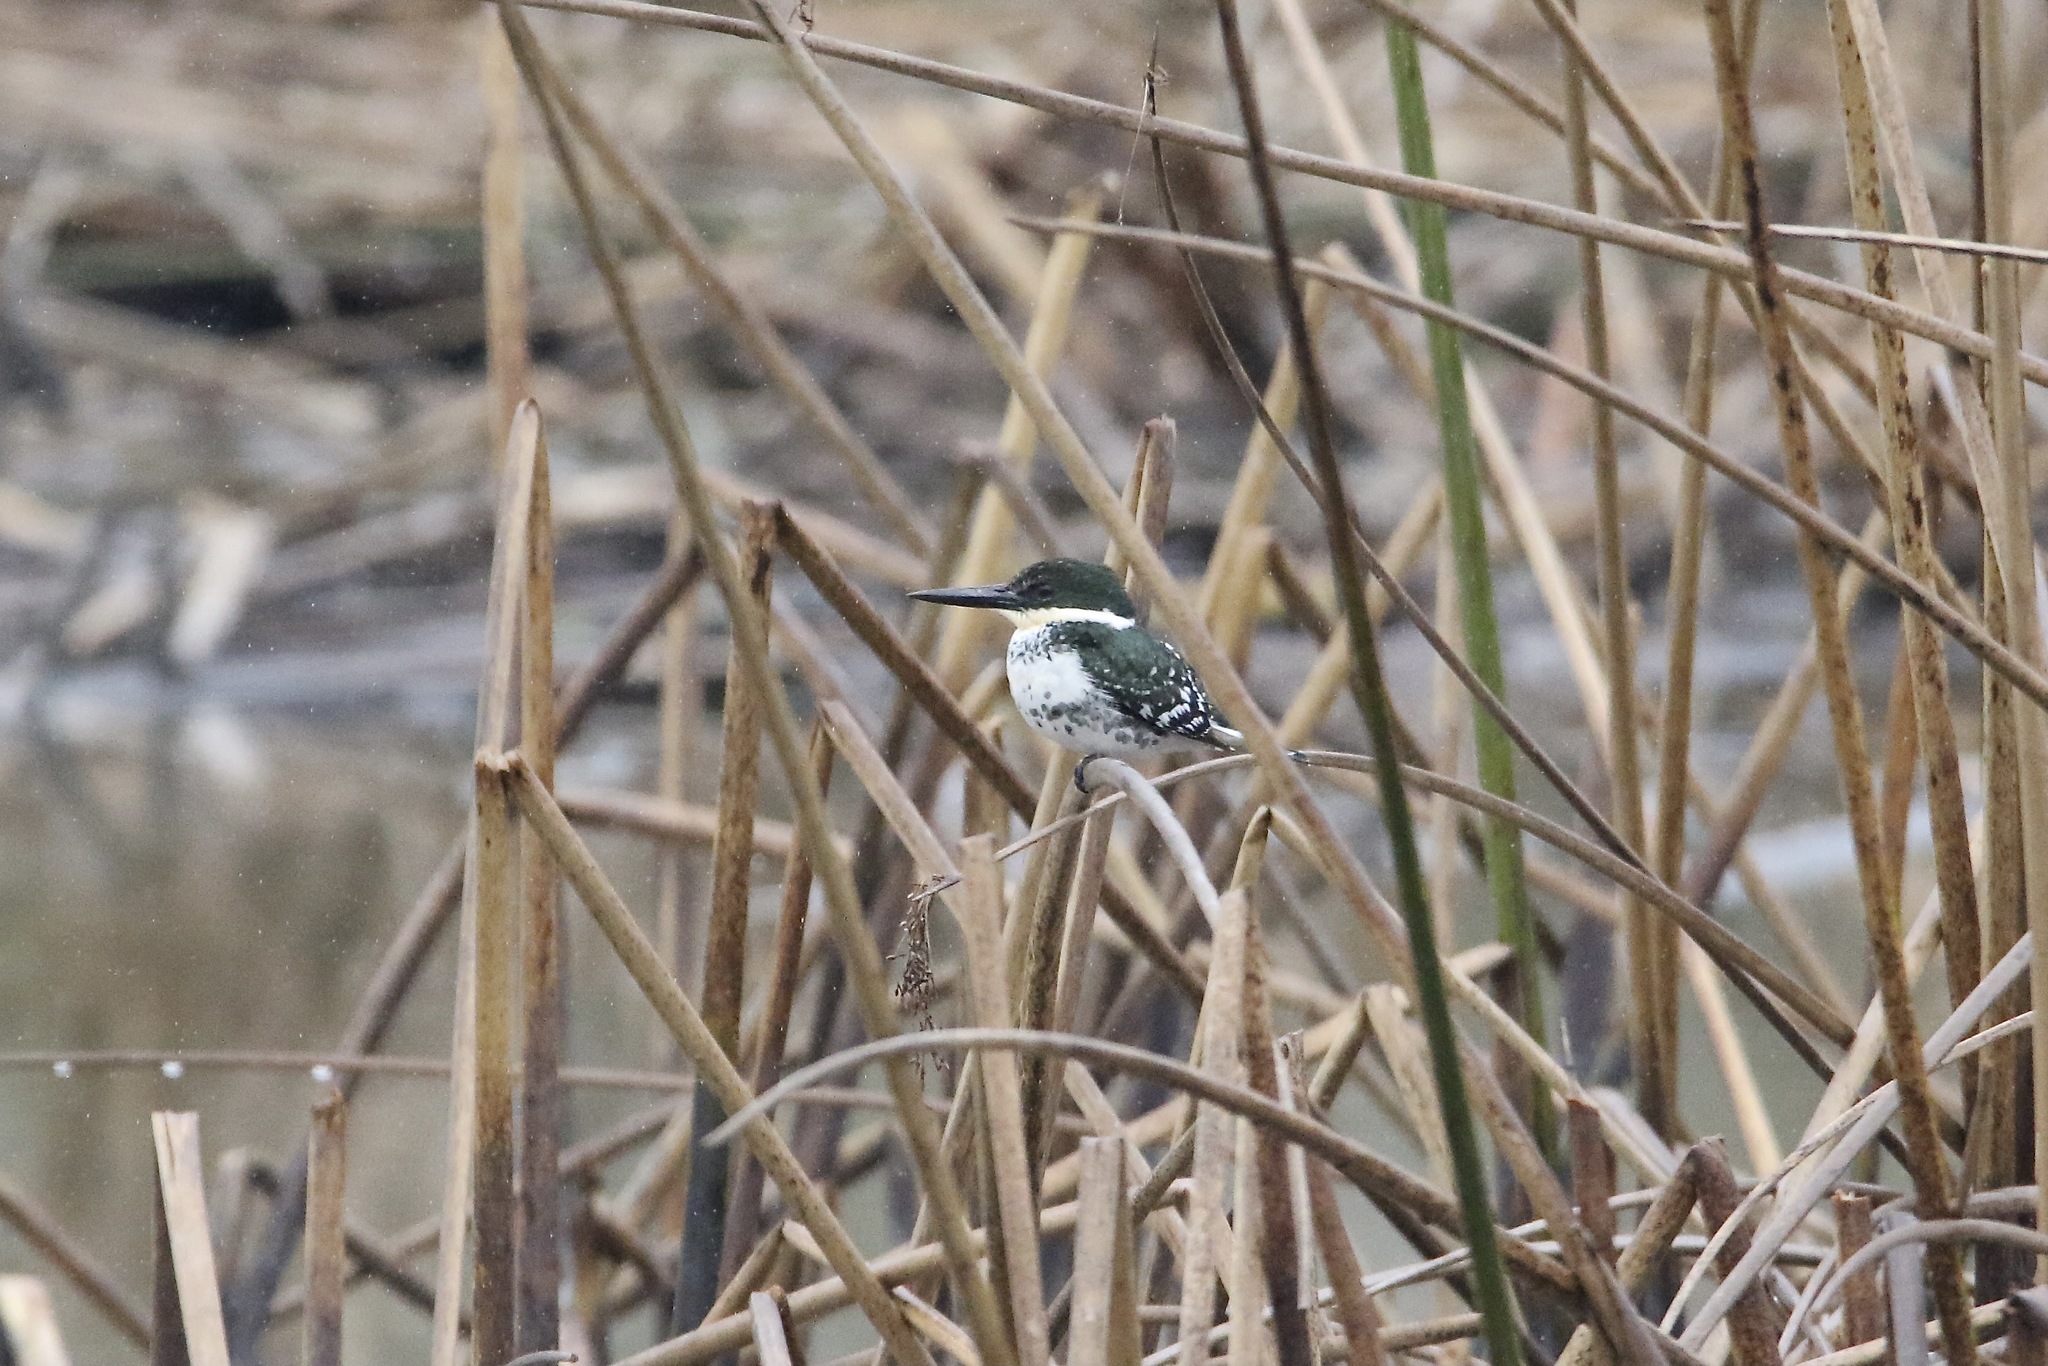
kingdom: Animalia
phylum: Chordata
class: Aves
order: Coraciiformes
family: Alcedinidae
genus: Chloroceryle
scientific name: Chloroceryle americana
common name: Green kingfisher
